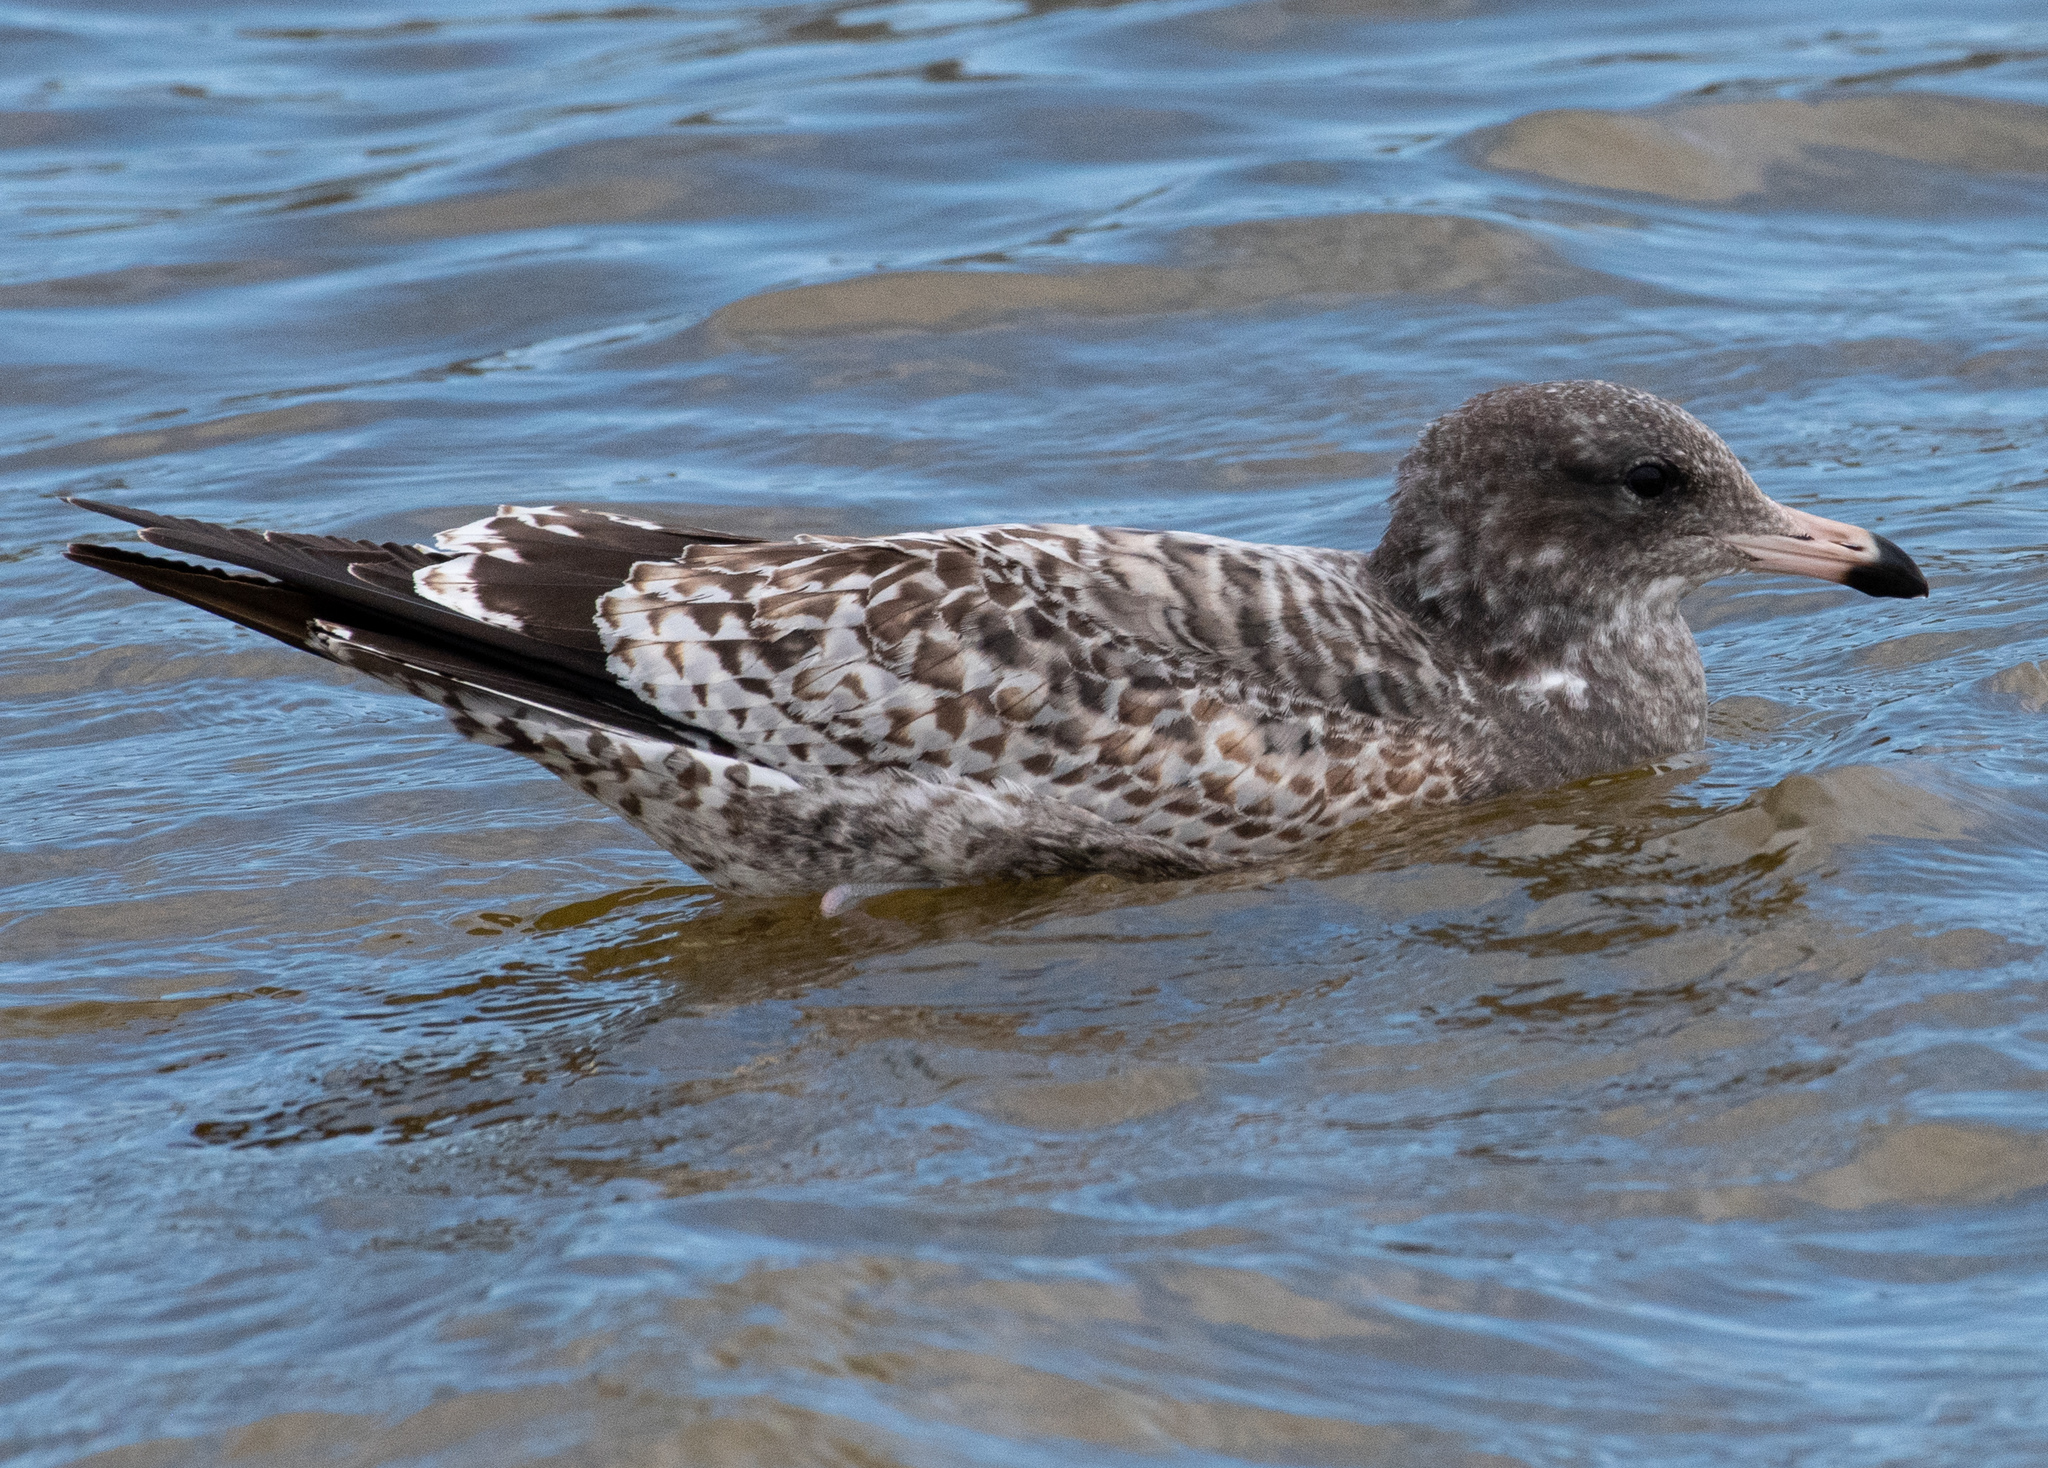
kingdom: Animalia
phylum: Chordata
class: Aves
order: Charadriiformes
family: Laridae
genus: Larus
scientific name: Larus californicus
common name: California gull
